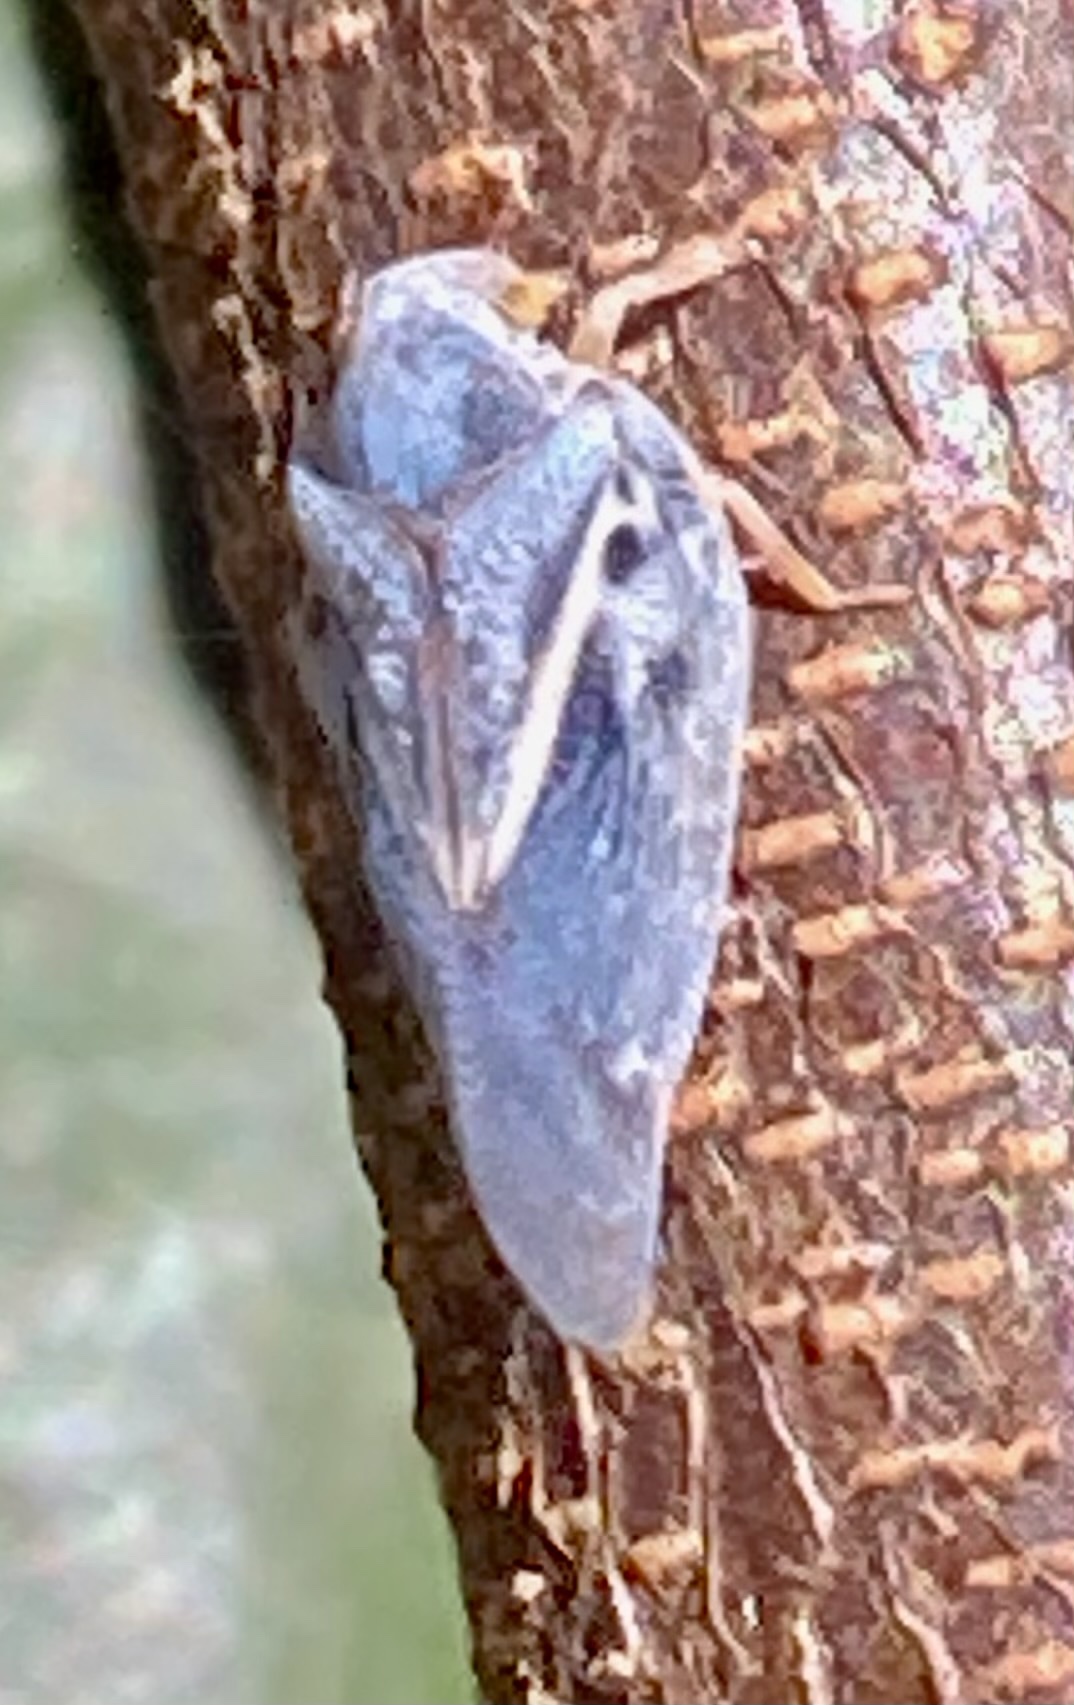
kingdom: Animalia
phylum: Arthropoda
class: Insecta
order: Hemiptera
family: Flatidae
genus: Metcalfa
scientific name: Metcalfa pruinosa
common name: Citrus flatid planthopper
